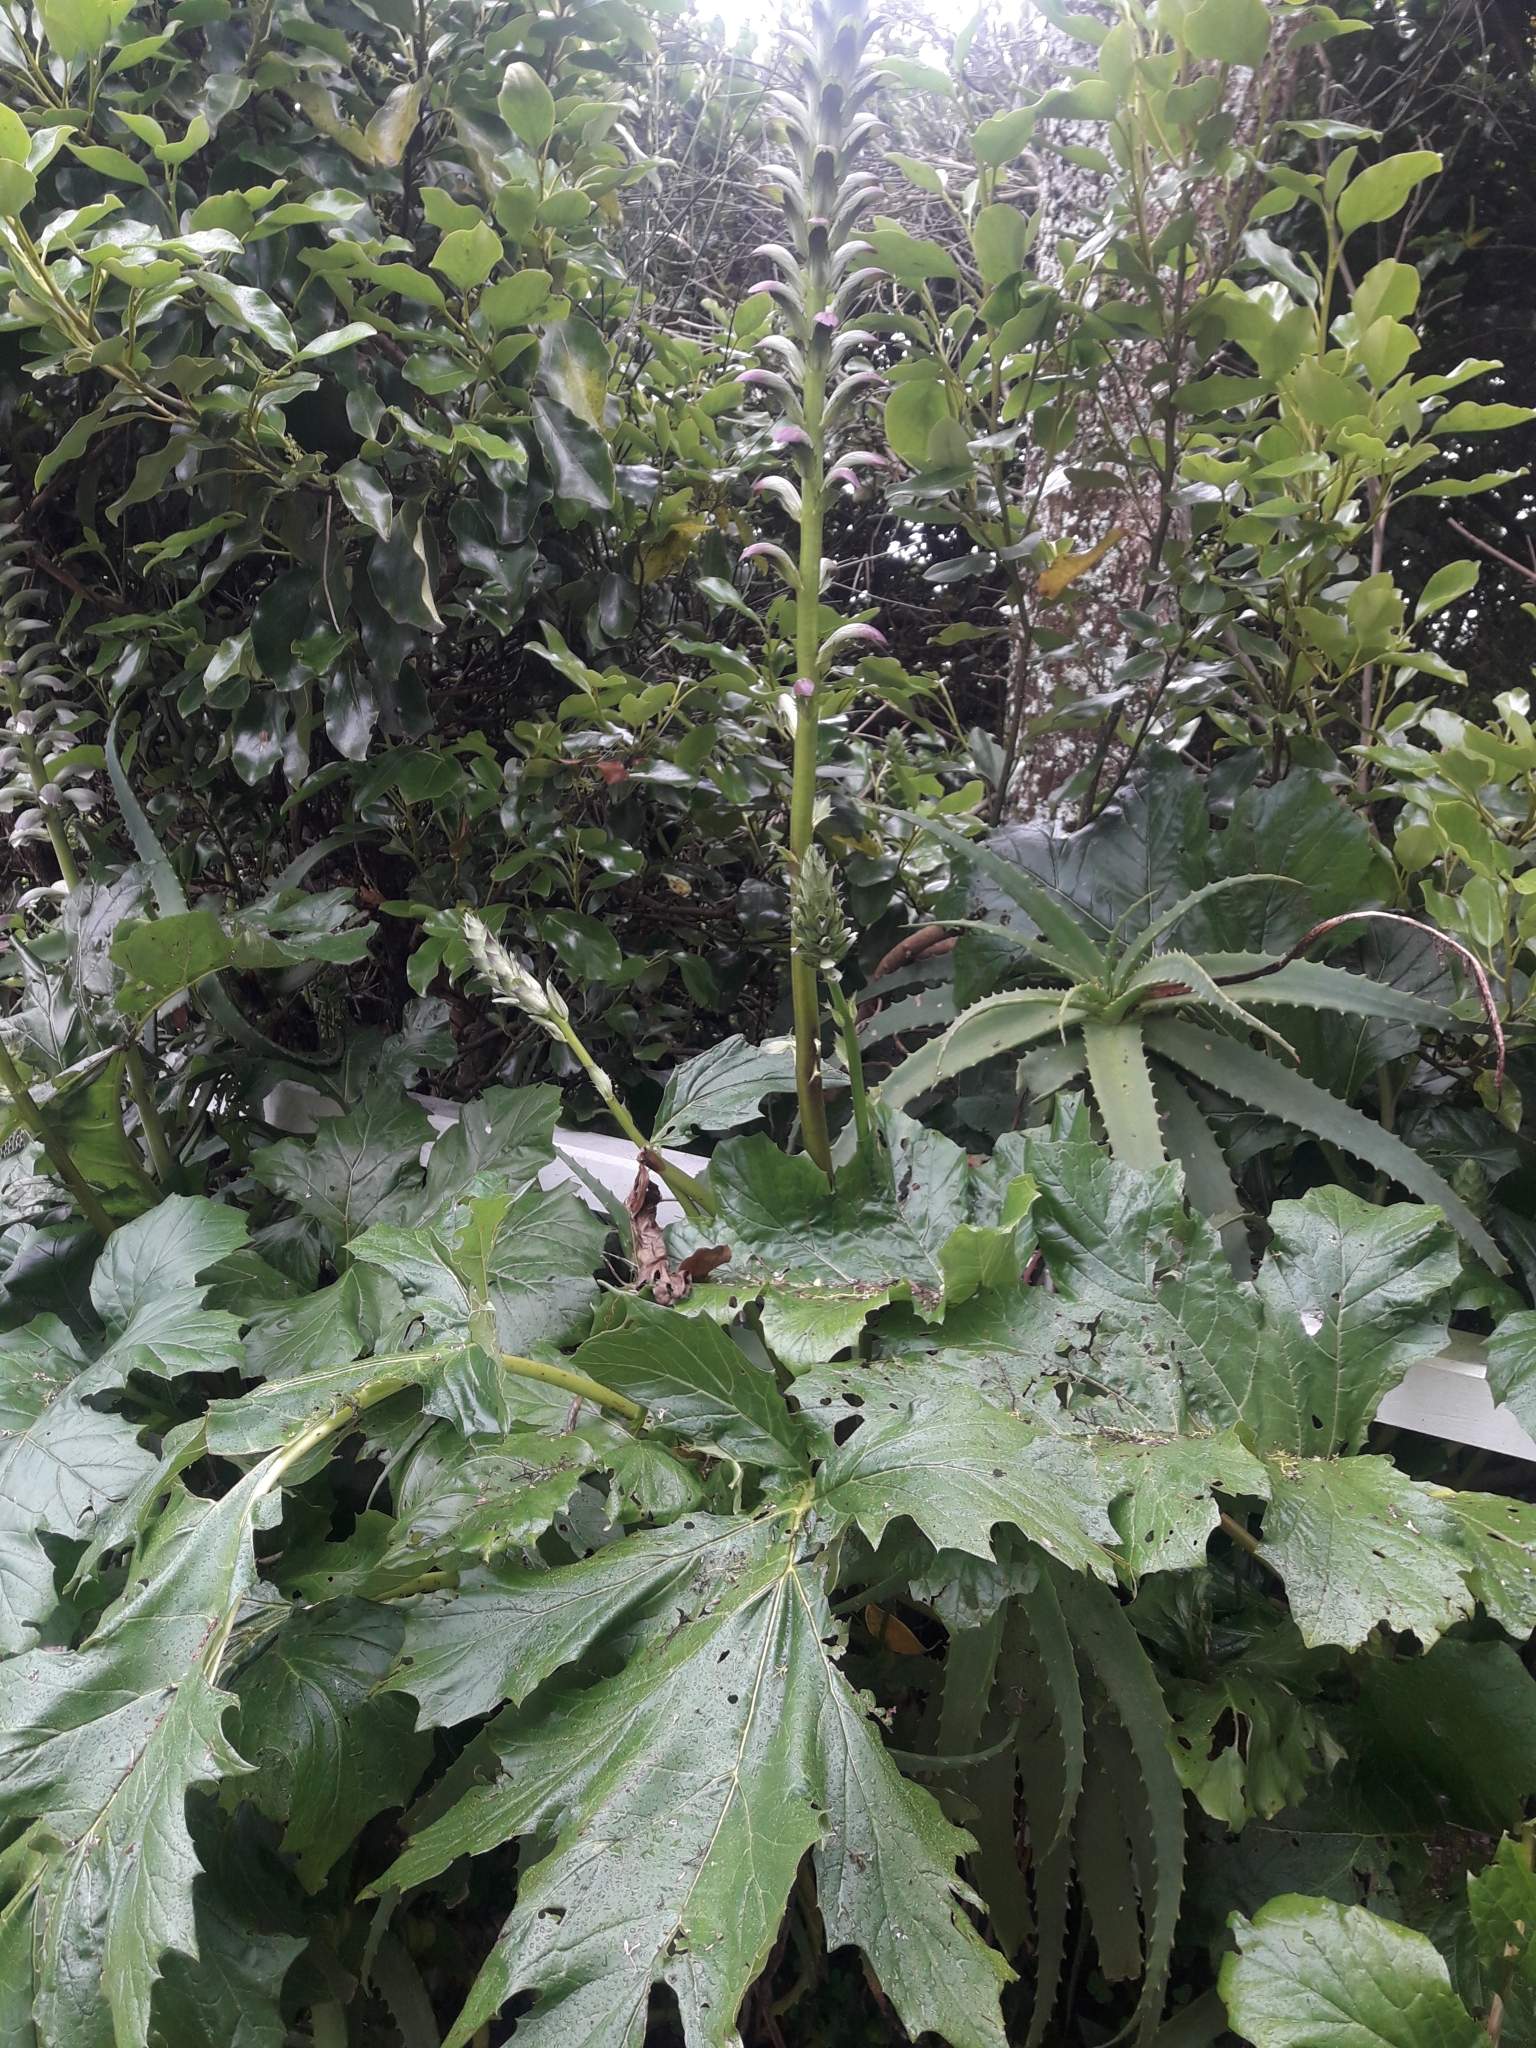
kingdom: Plantae
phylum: Tracheophyta
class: Magnoliopsida
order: Lamiales
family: Acanthaceae
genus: Acanthus
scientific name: Acanthus mollis
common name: Bear's-breech
